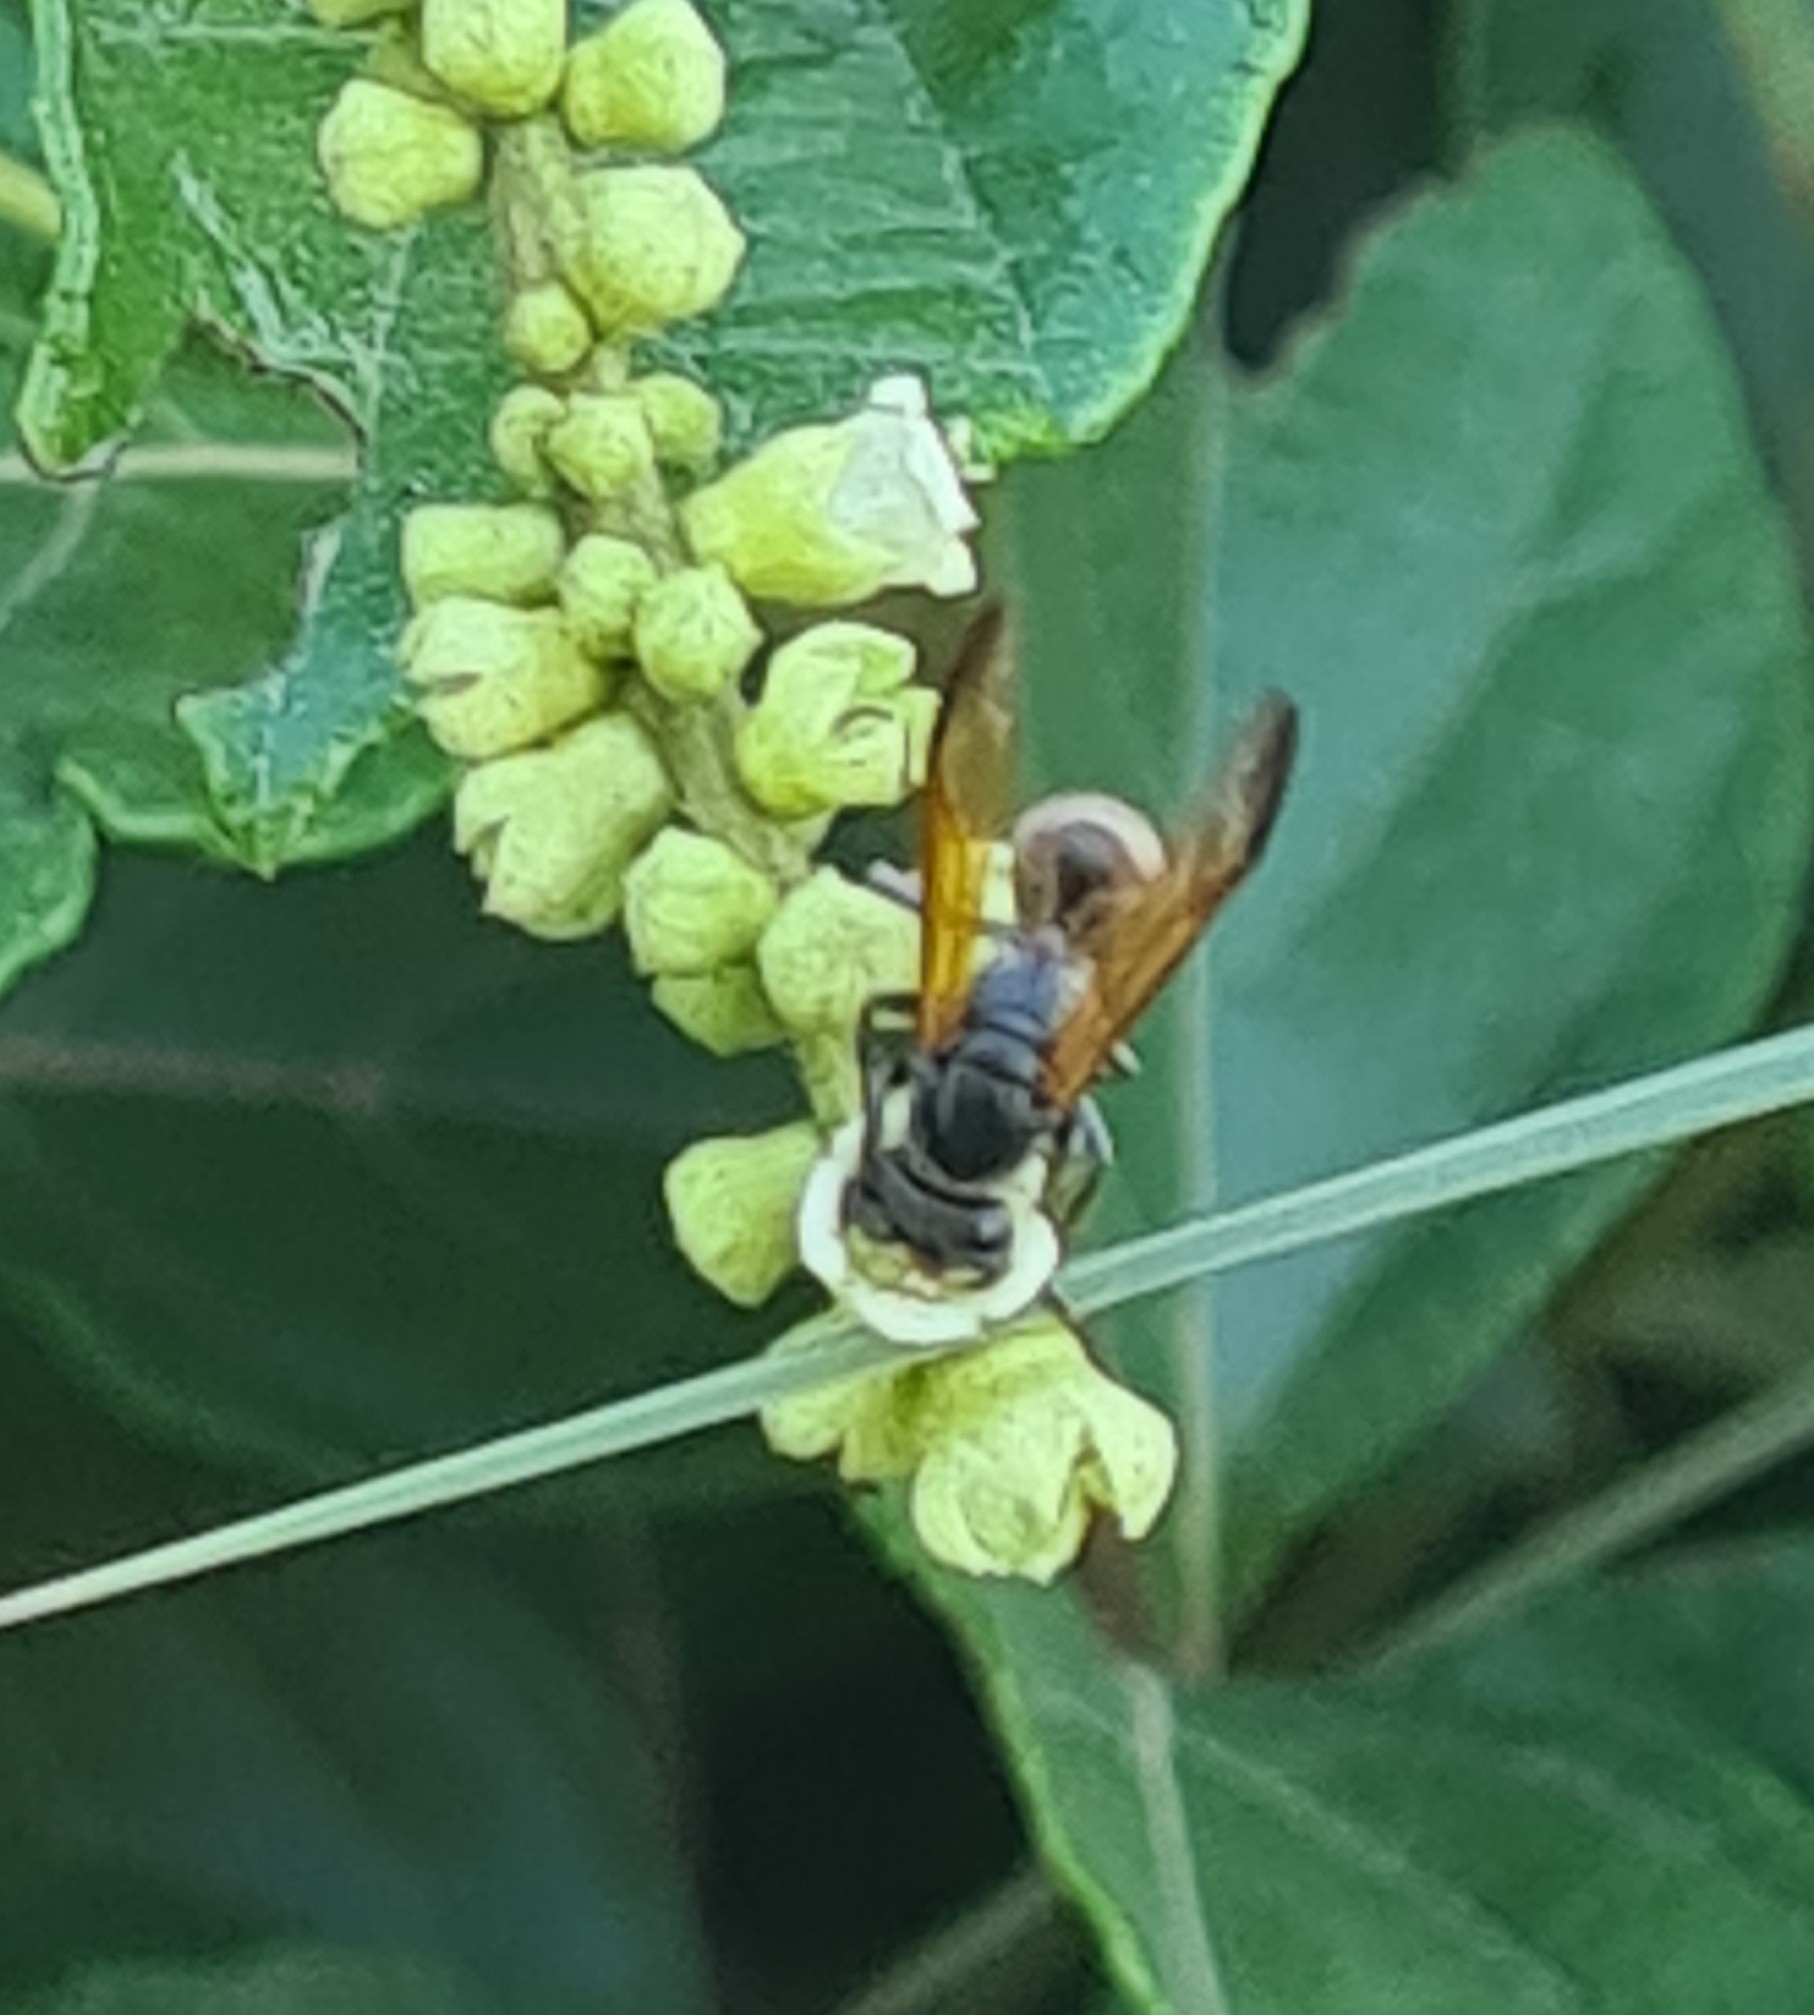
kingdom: Animalia
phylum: Arthropoda
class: Insecta
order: Hymenoptera
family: Eumenidae
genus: Polybia
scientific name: Polybia rejecta
